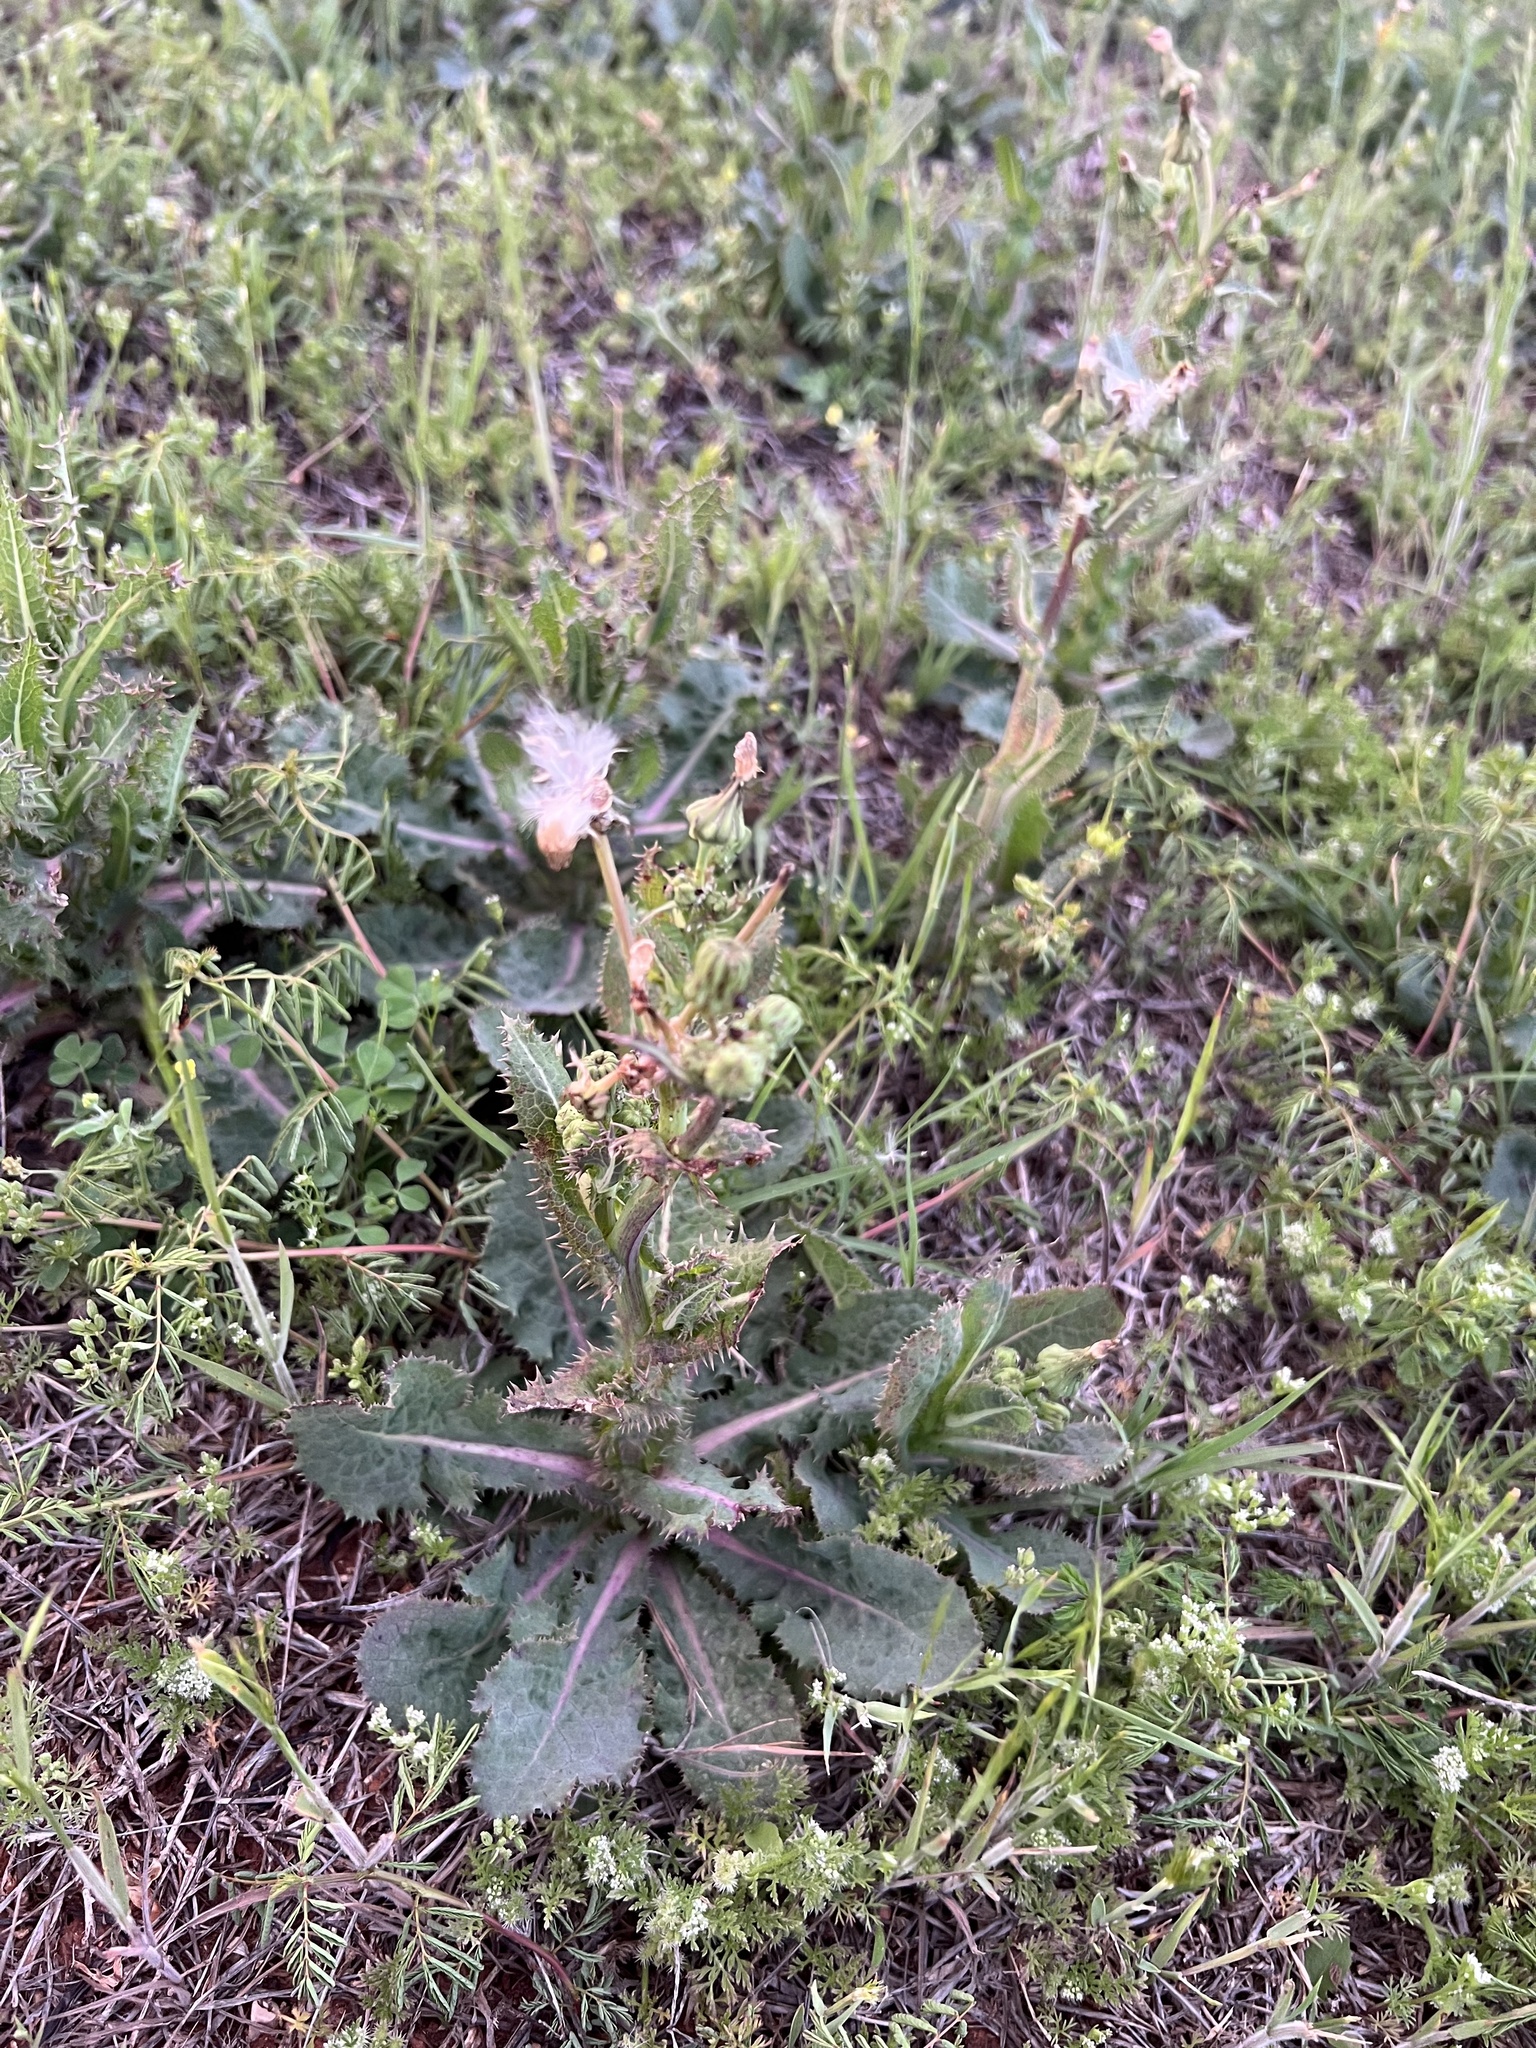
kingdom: Plantae
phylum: Tracheophyta
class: Magnoliopsida
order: Asterales
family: Asteraceae
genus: Sonchus
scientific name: Sonchus asper
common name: Prickly sow-thistle
